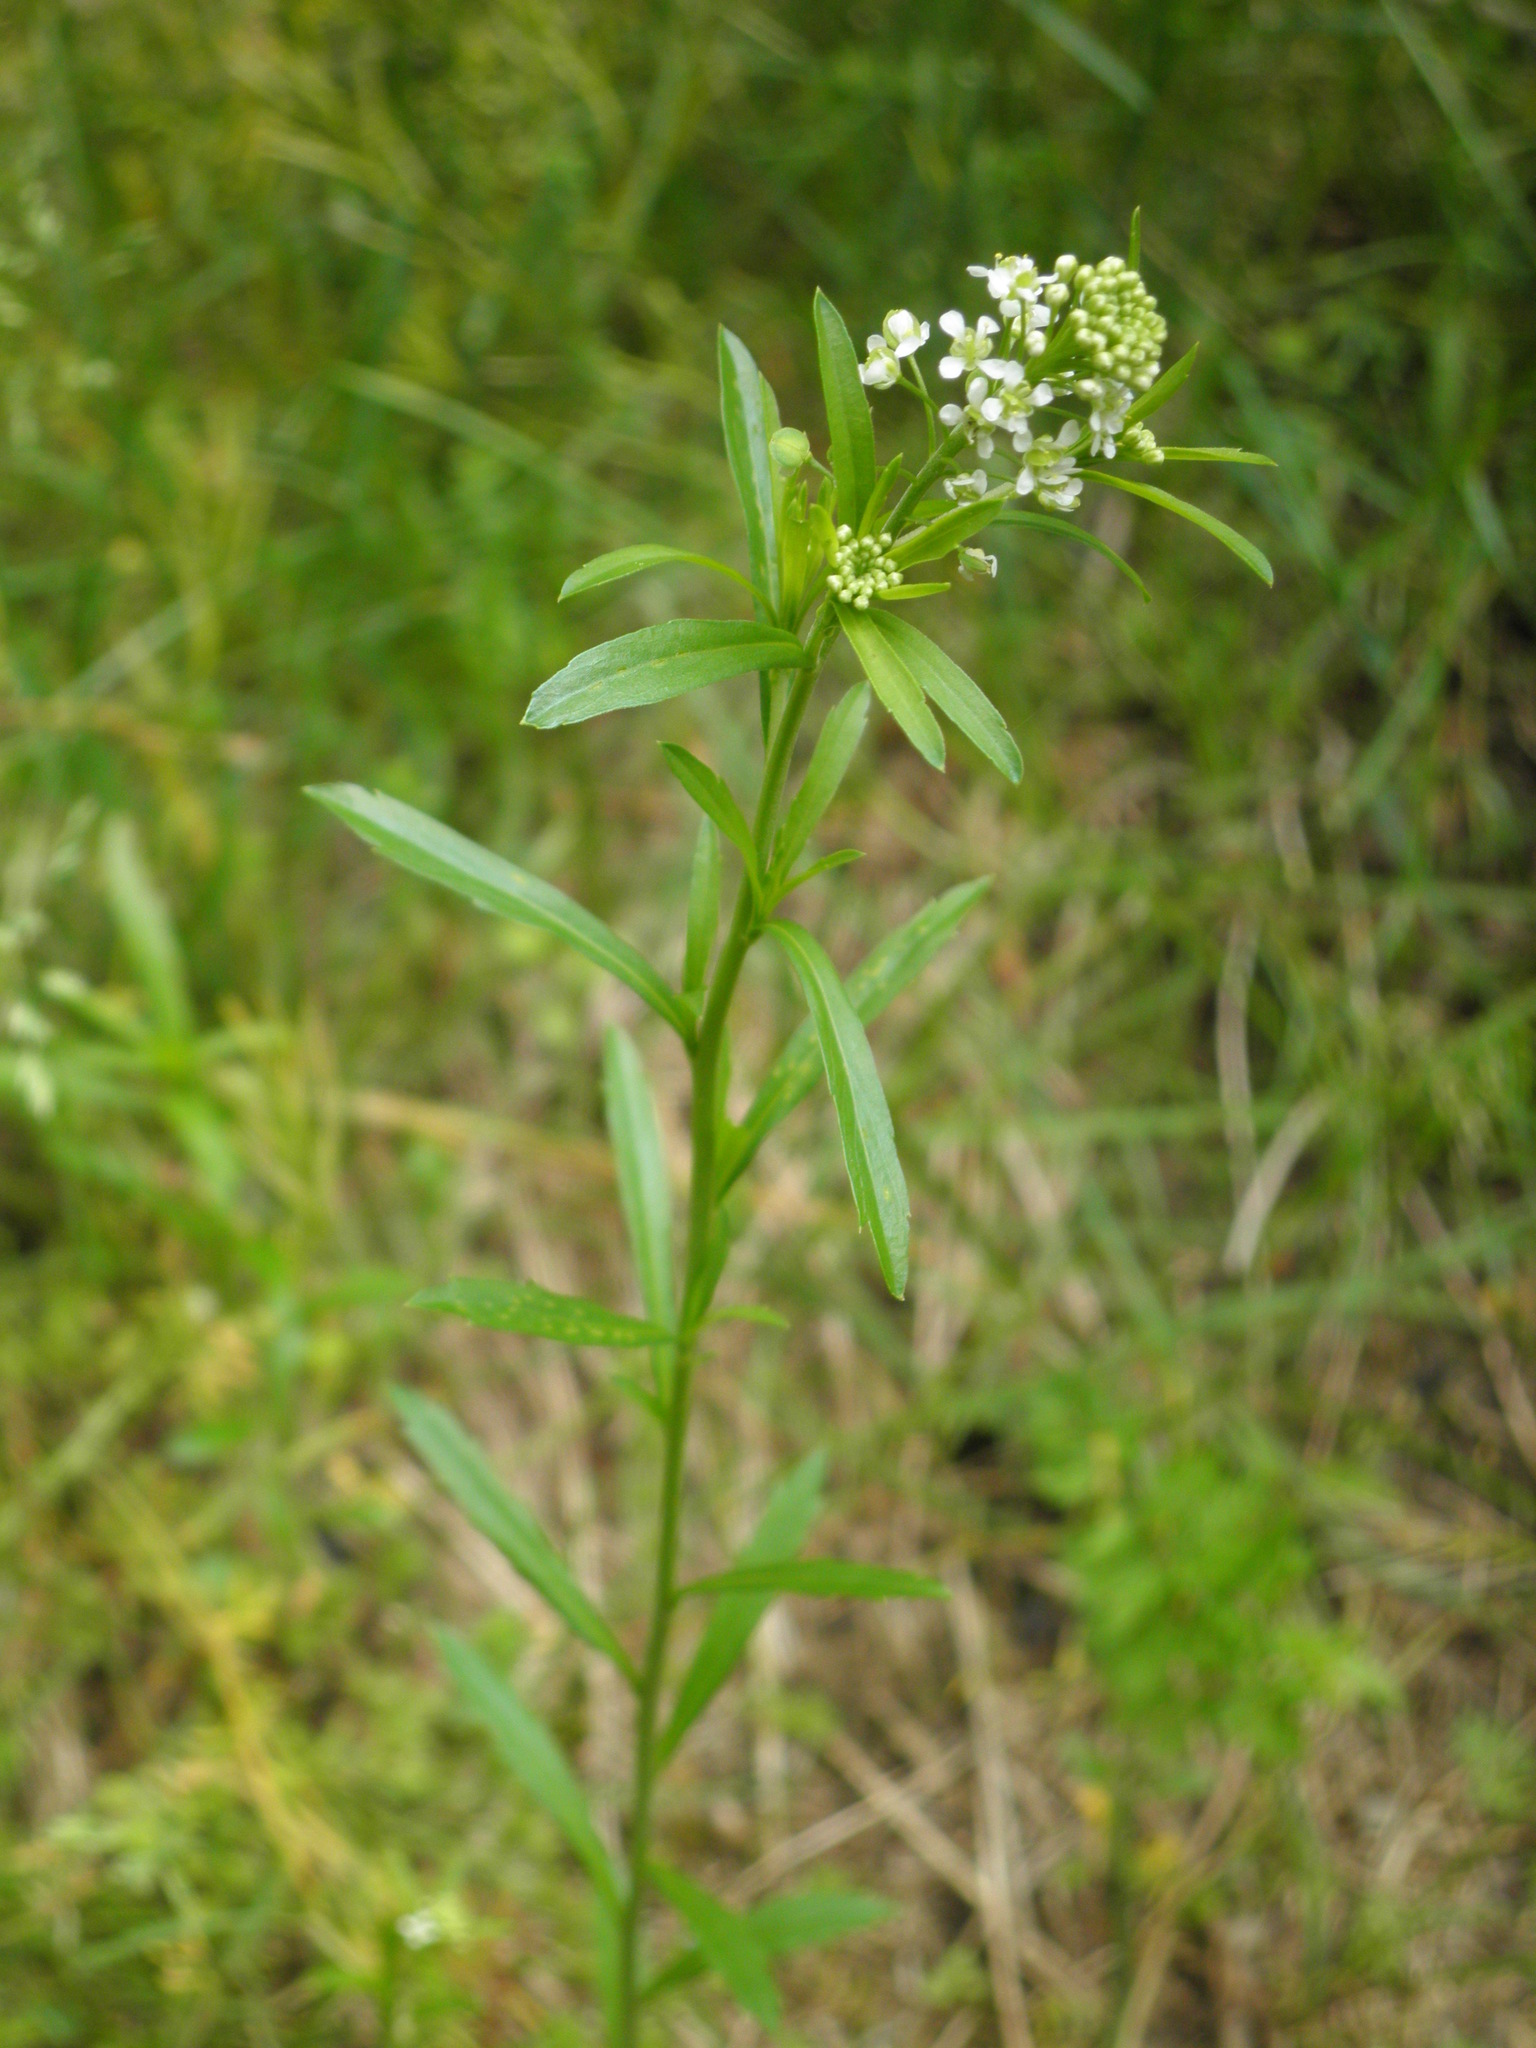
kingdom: Plantae
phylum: Tracheophyta
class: Magnoliopsida
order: Brassicales
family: Brassicaceae
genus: Lepidium
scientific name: Lepidium virginicum
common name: Least pepperwort
